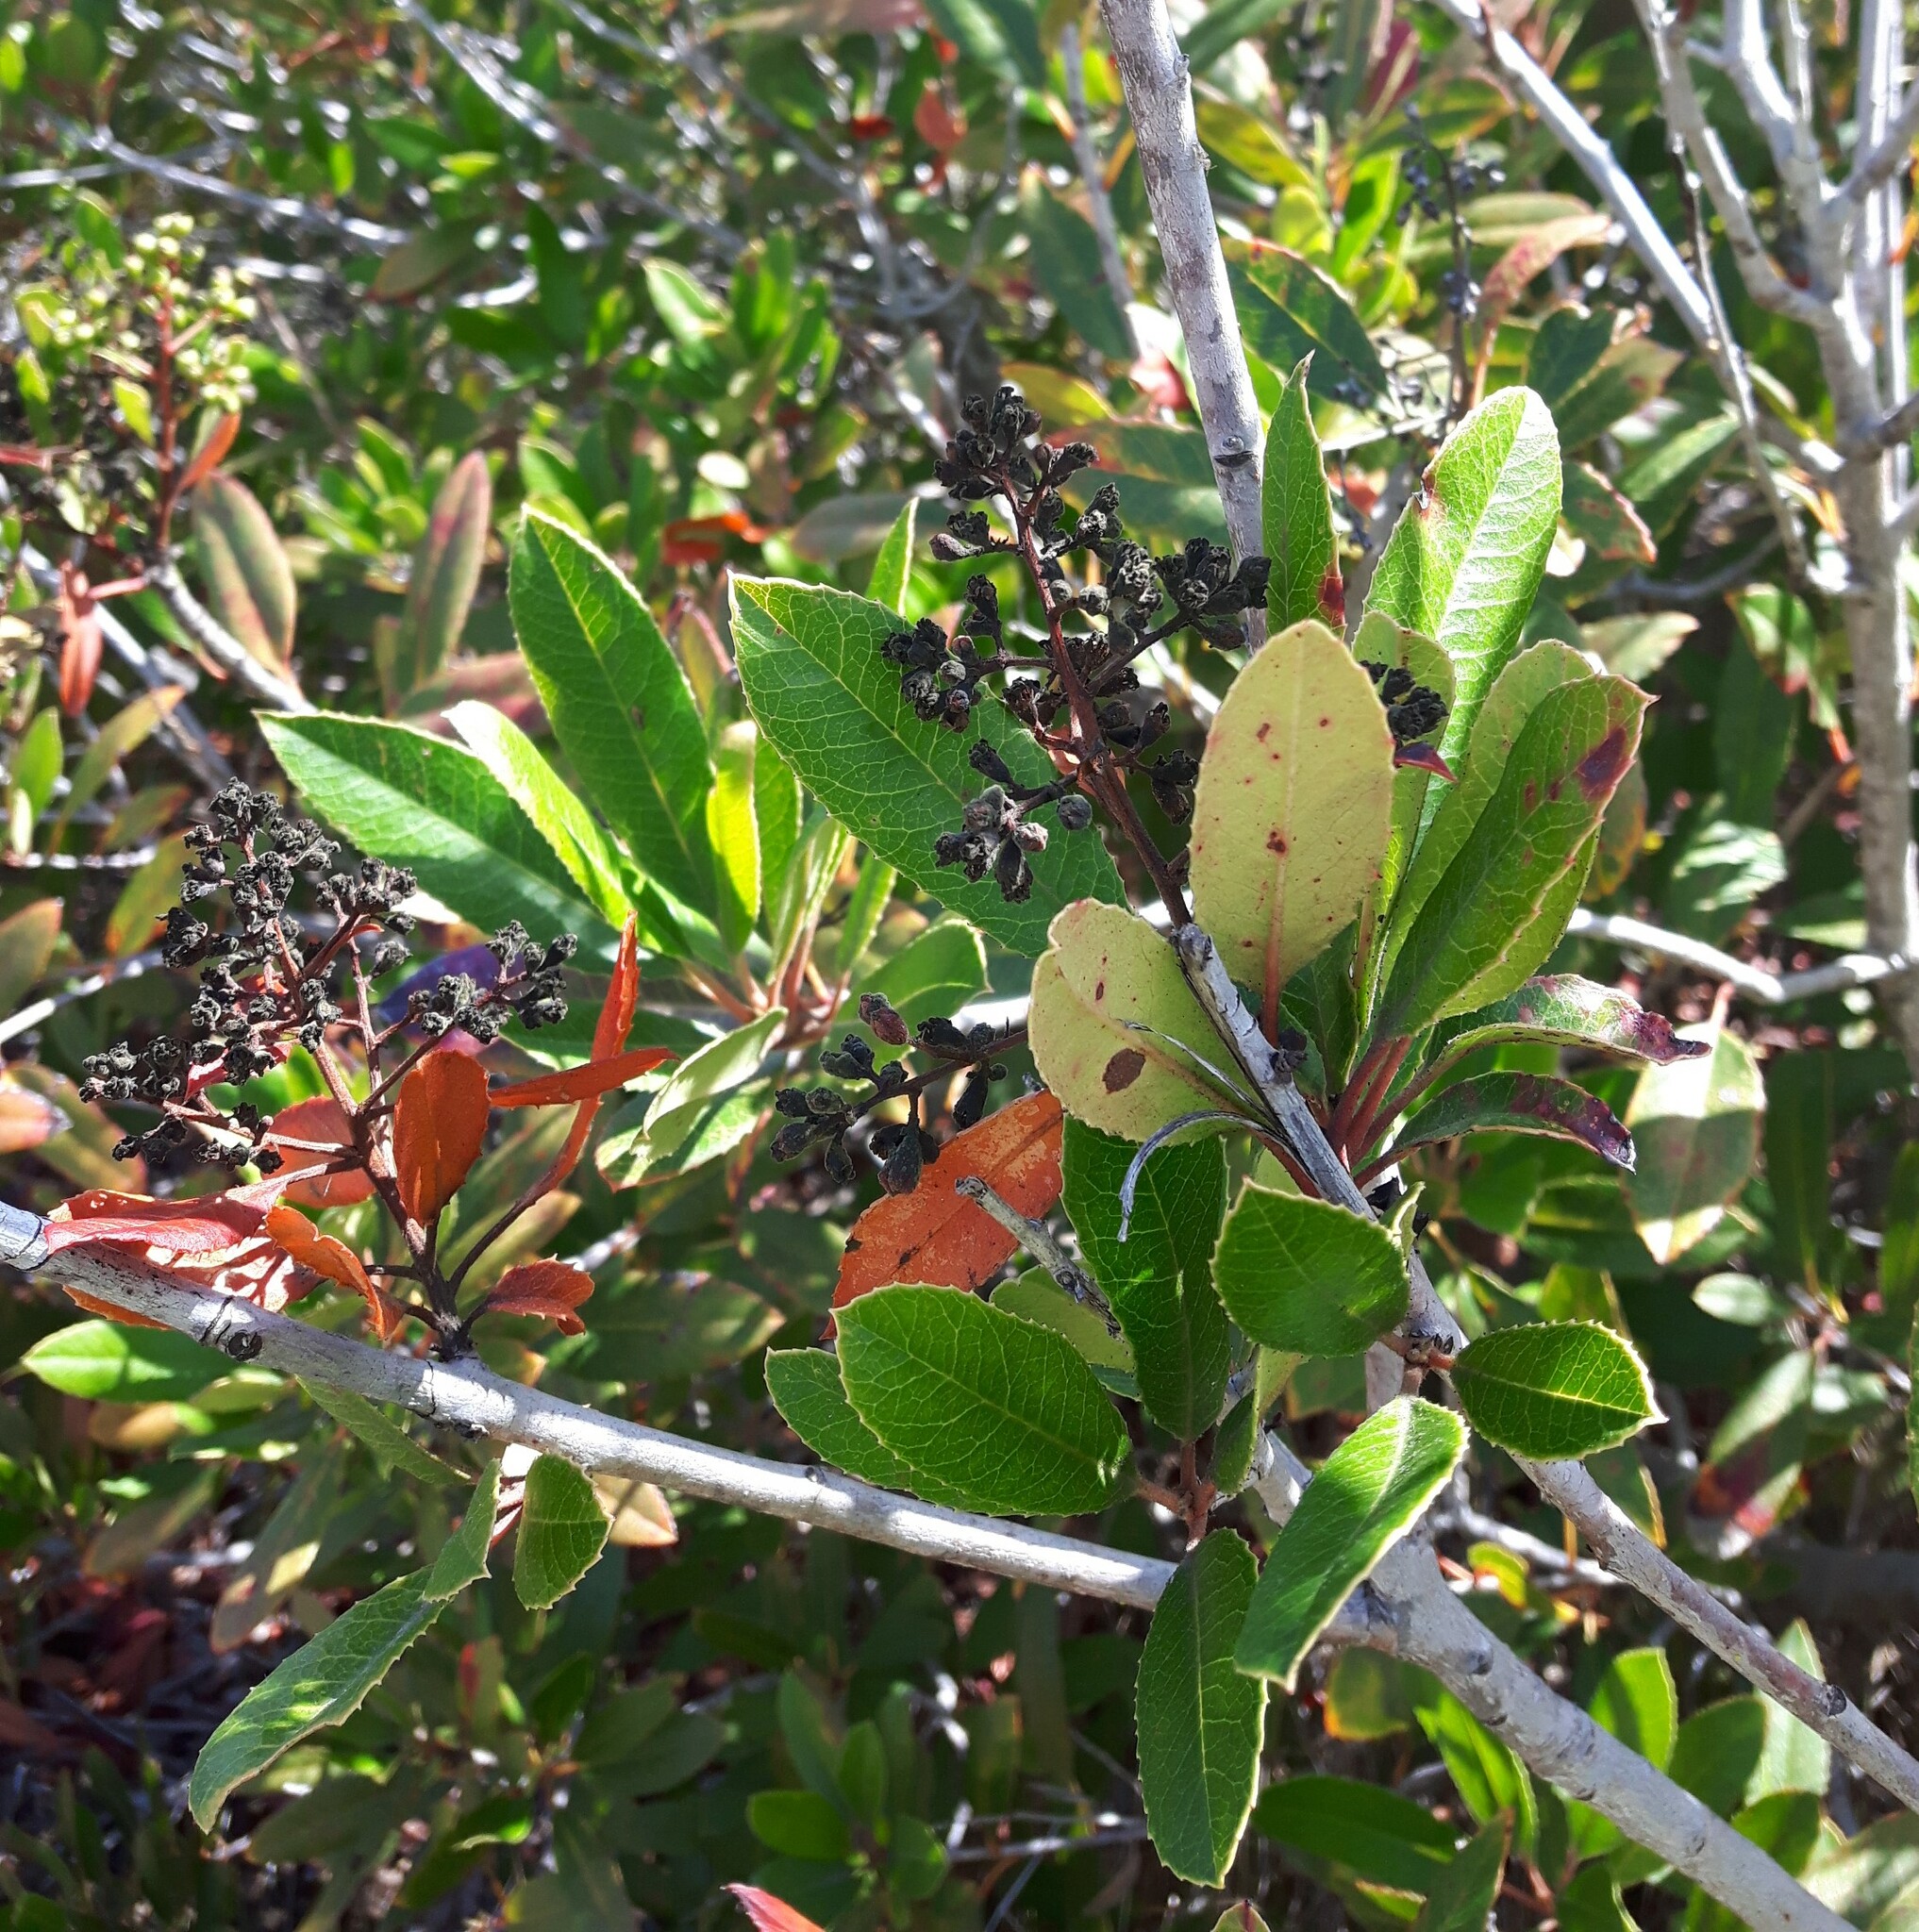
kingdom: Plantae
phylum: Tracheophyta
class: Magnoliopsida
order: Rosales
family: Rosaceae
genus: Heteromeles
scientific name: Heteromeles arbutifolia
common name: California-holly
